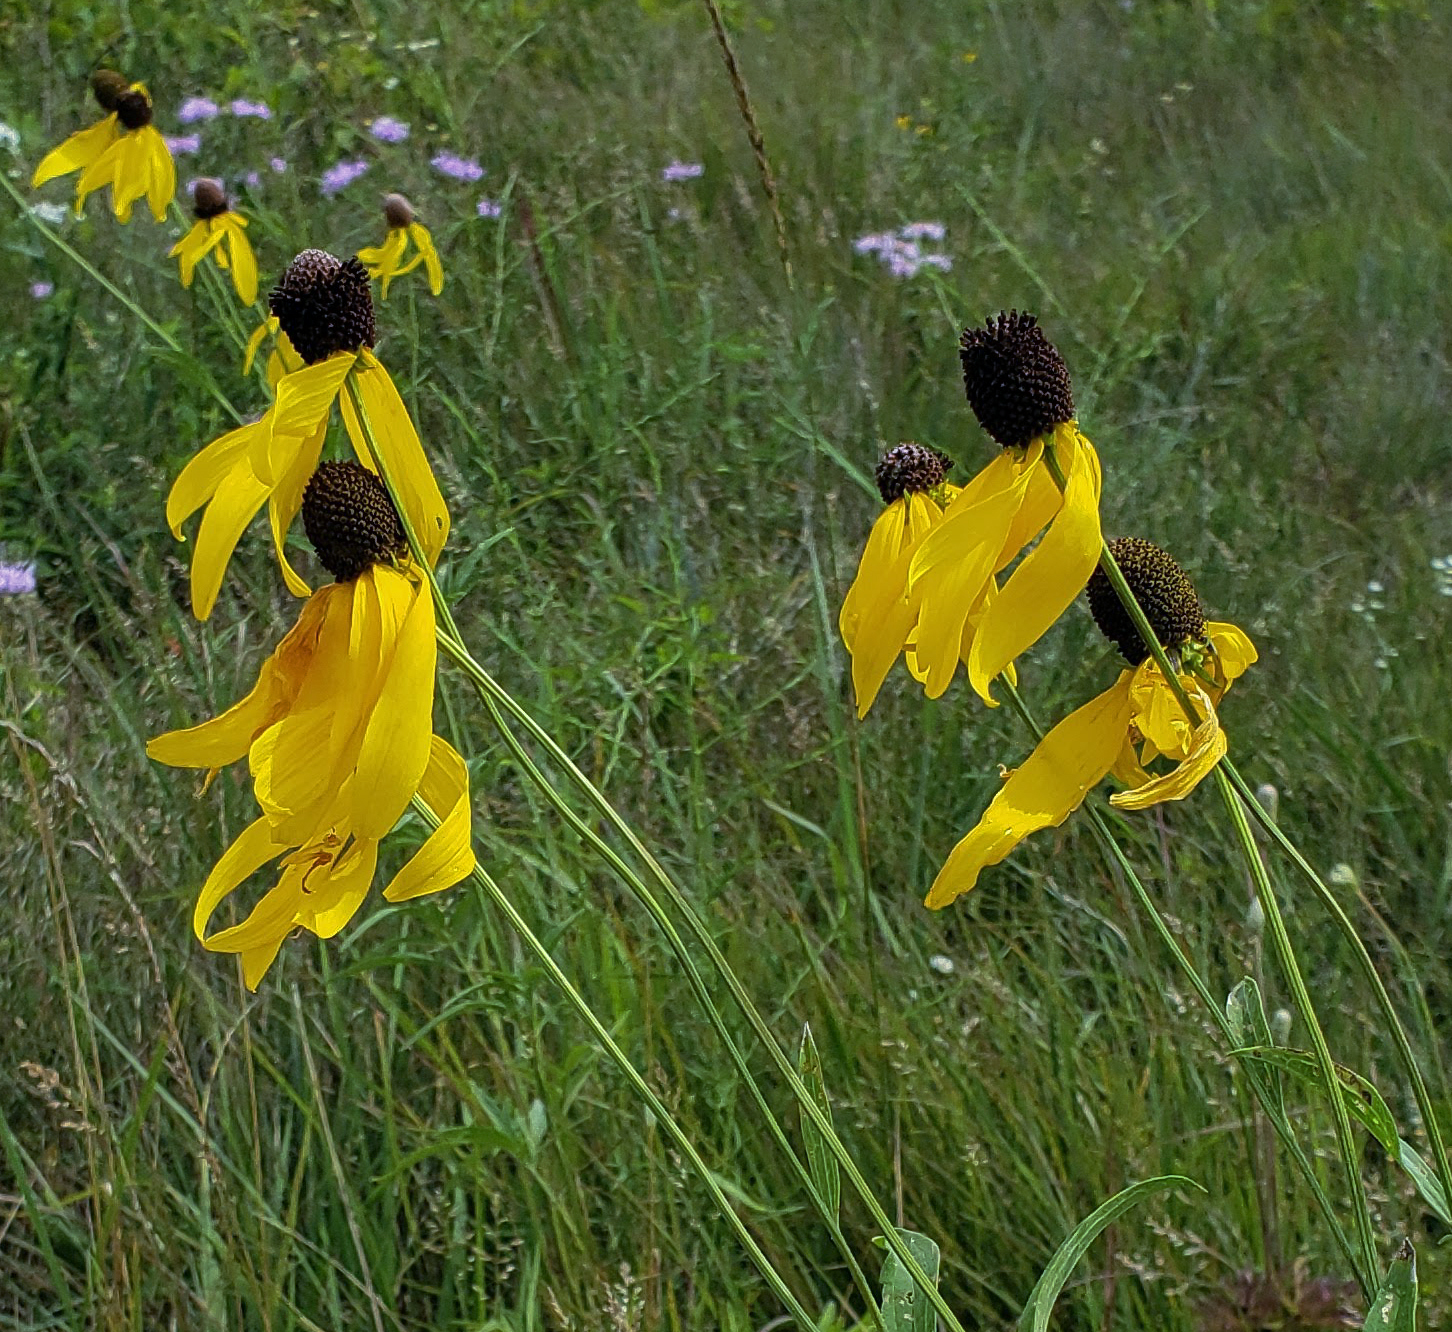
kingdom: Plantae
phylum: Tracheophyta
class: Magnoliopsida
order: Asterales
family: Asteraceae
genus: Ratibida
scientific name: Ratibida pinnata
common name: Drooping prairie-coneflower
